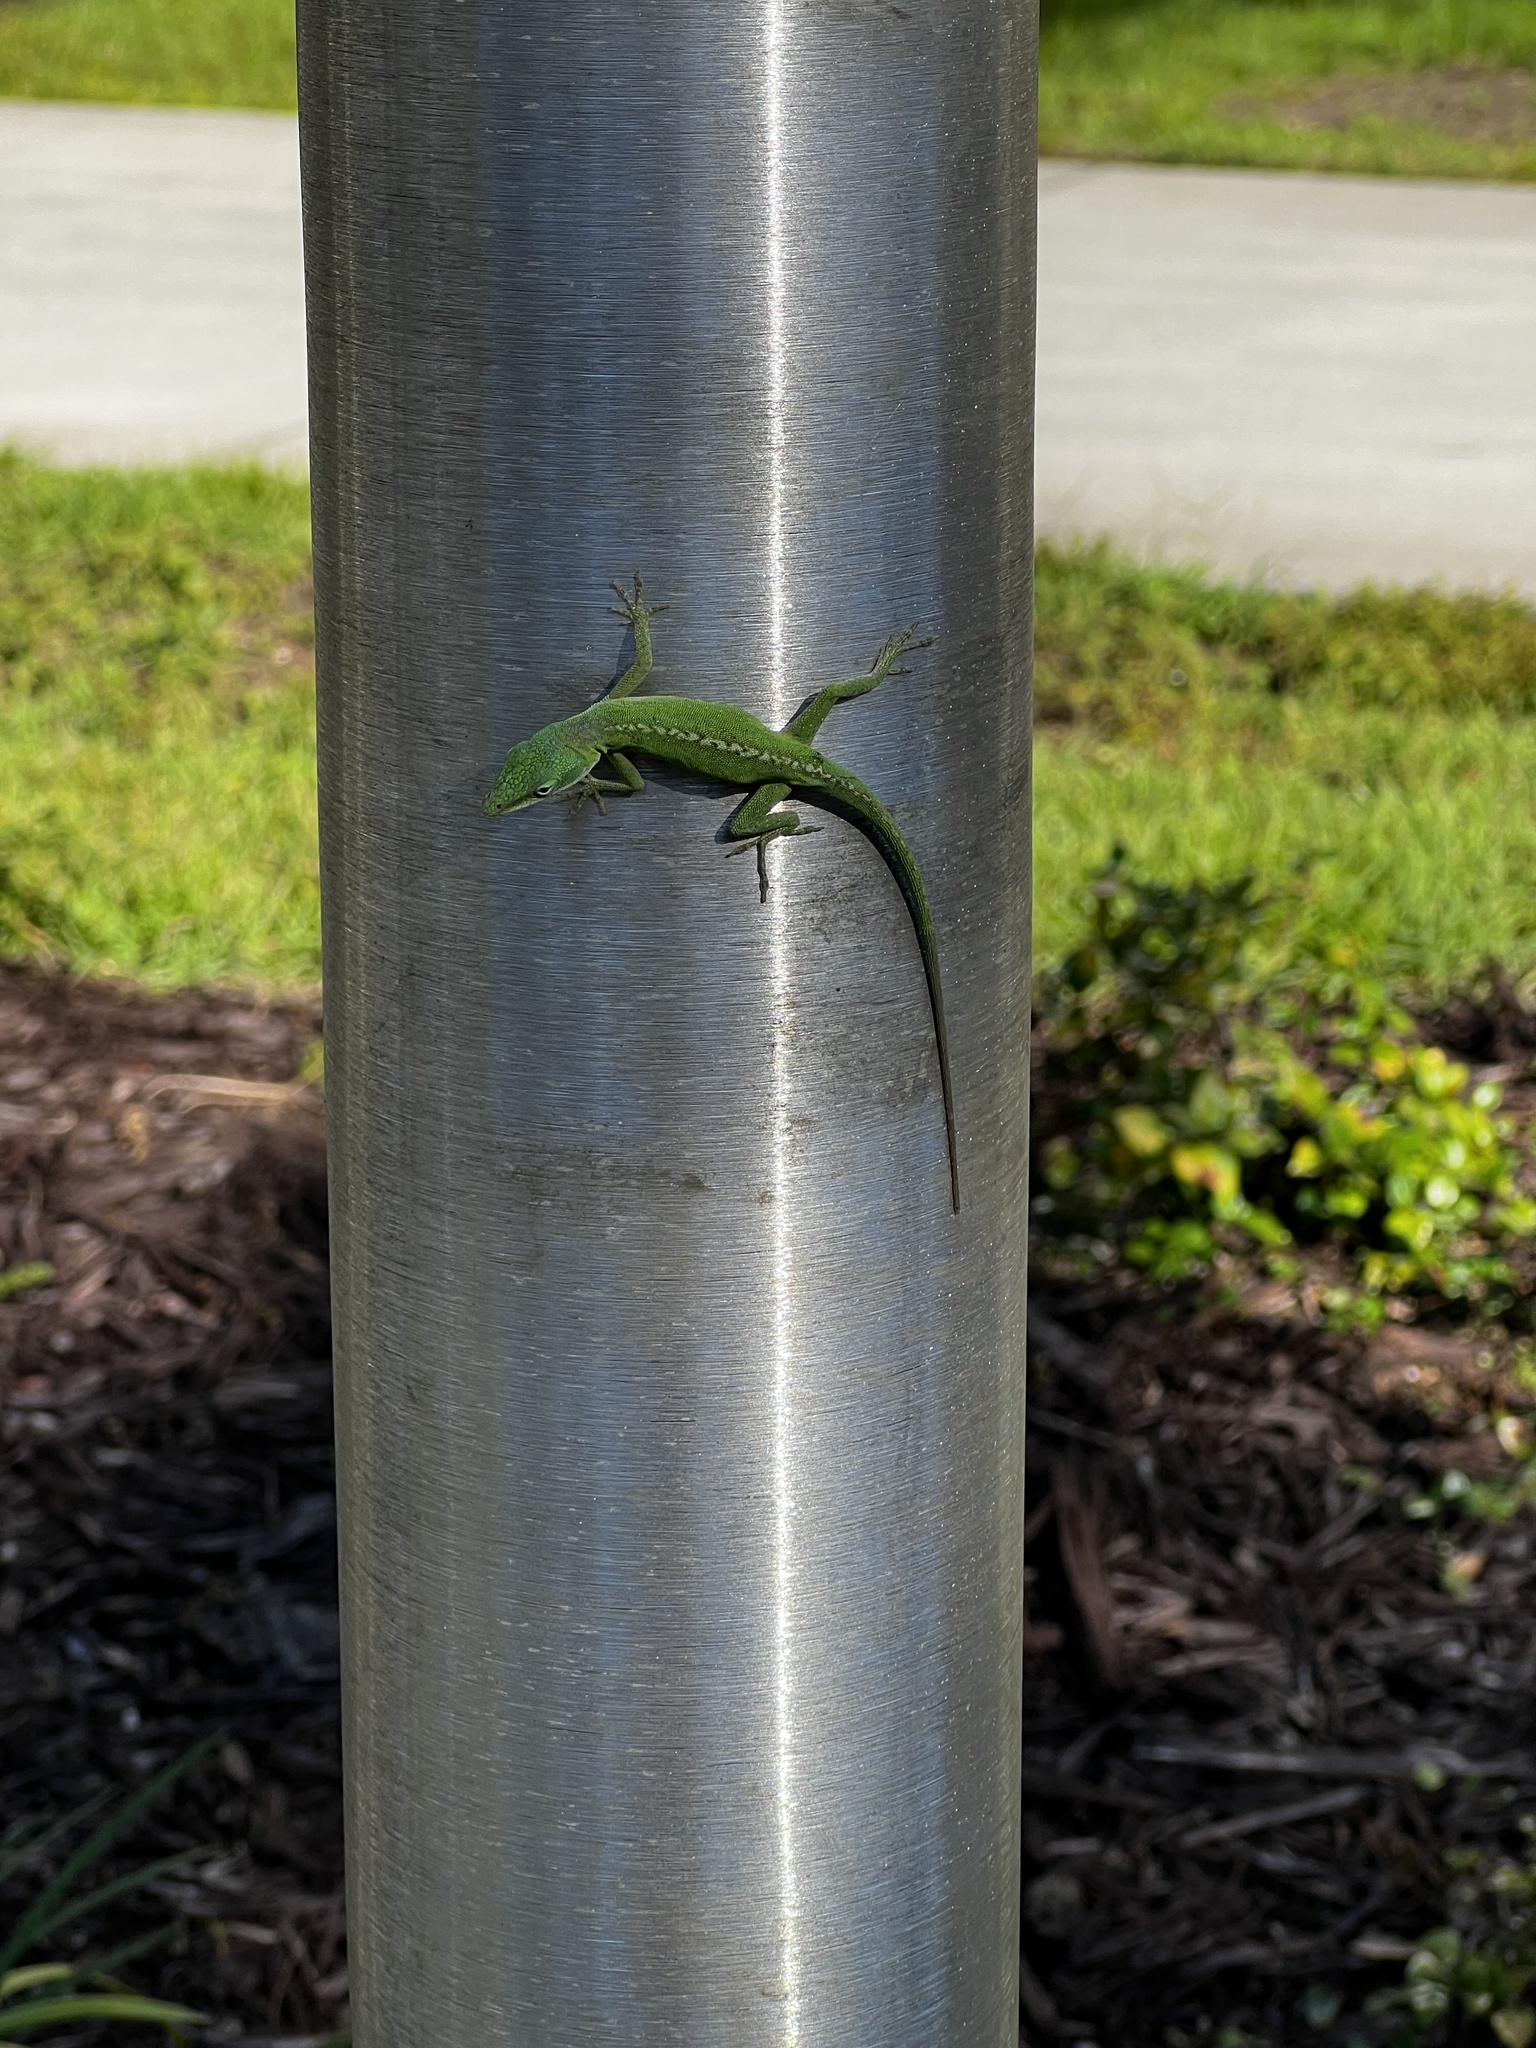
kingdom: Animalia
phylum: Chordata
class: Squamata
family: Dactyloidae
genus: Anolis
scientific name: Anolis carolinensis
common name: Green anole
